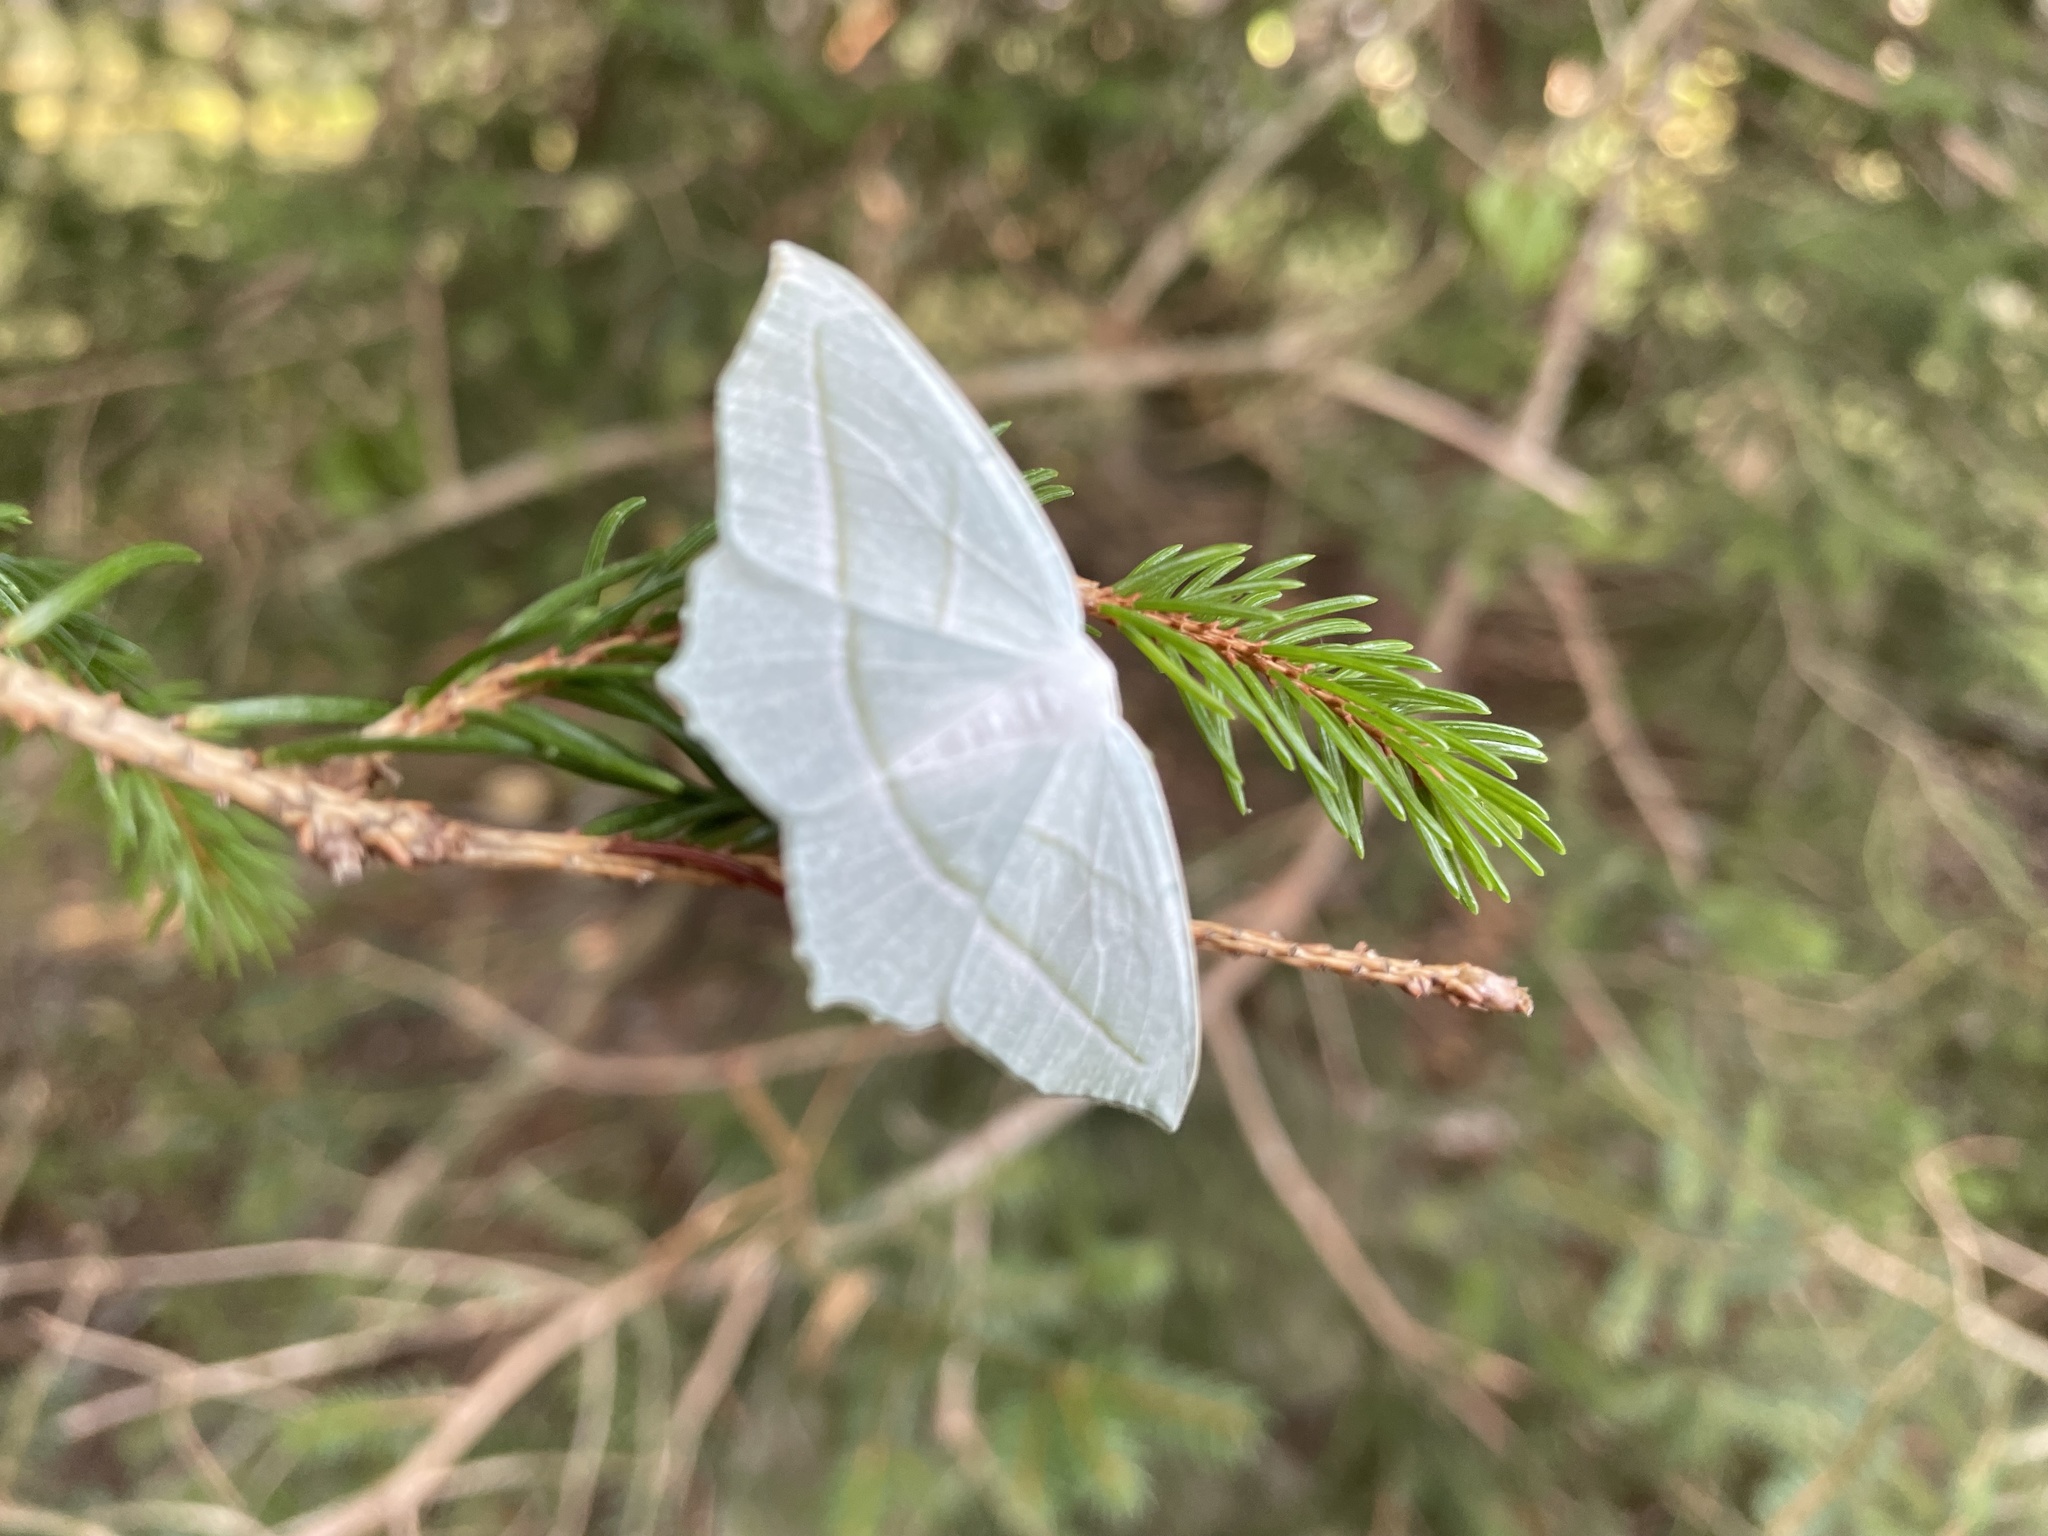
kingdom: Animalia
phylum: Arthropoda
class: Insecta
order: Lepidoptera
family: Geometridae
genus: Campaea
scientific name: Campaea perlata
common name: Fringed looper
